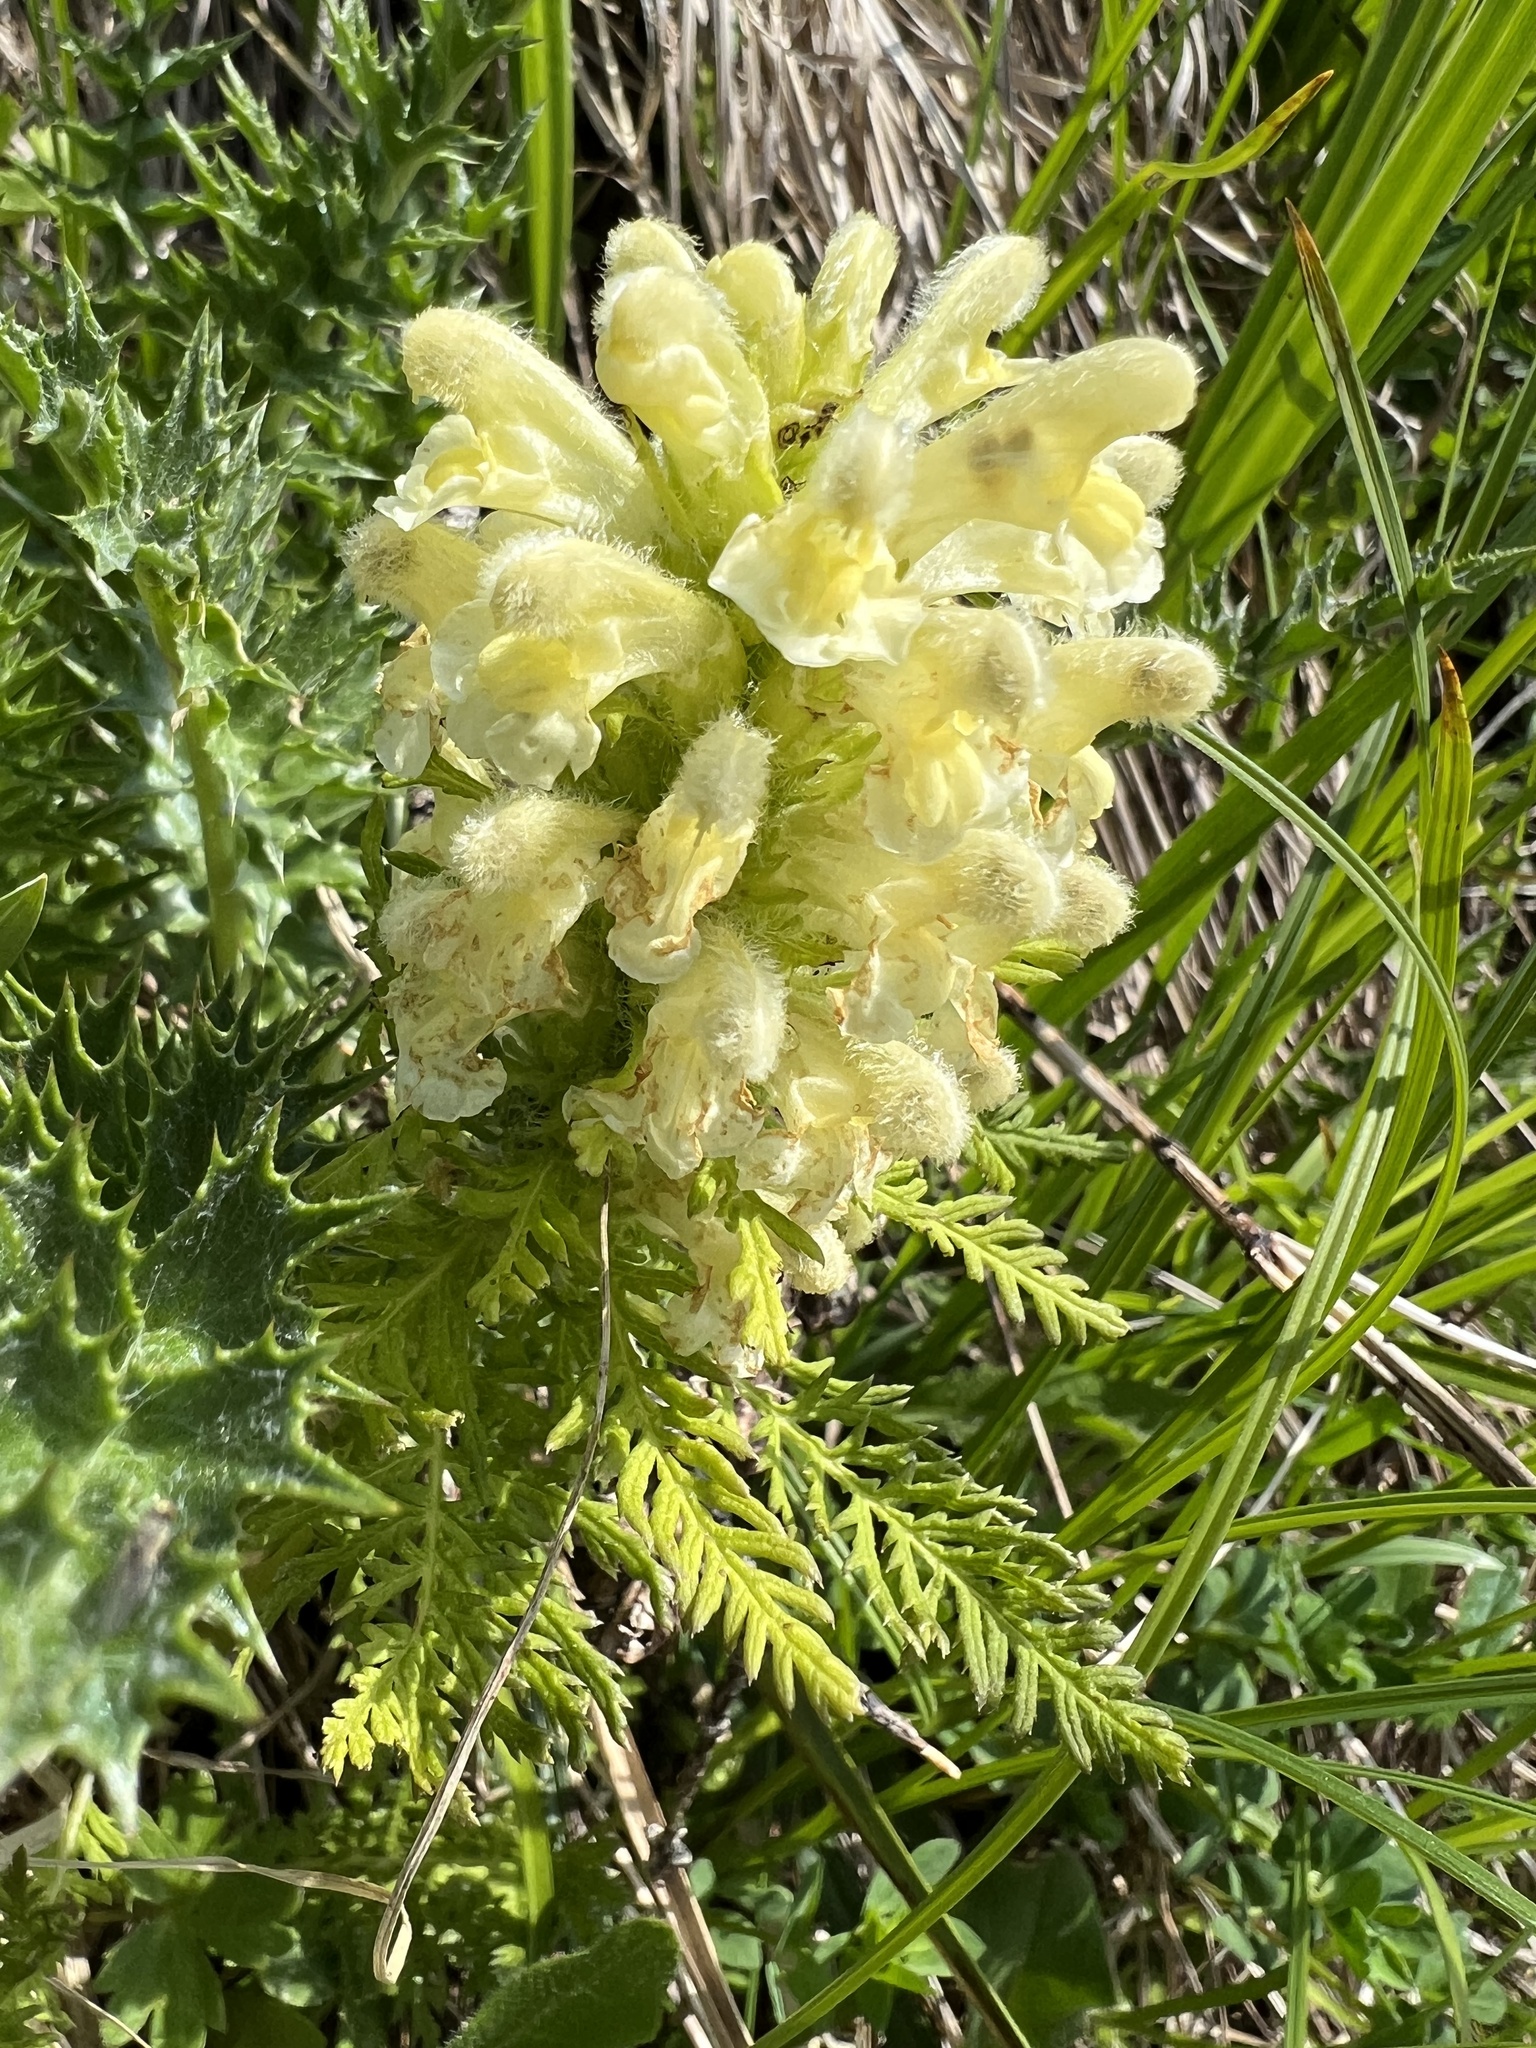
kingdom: Plantae
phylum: Tracheophyta
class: Magnoliopsida
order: Lamiales
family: Orobanchaceae
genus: Pedicularis
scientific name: Pedicularis foliosa
